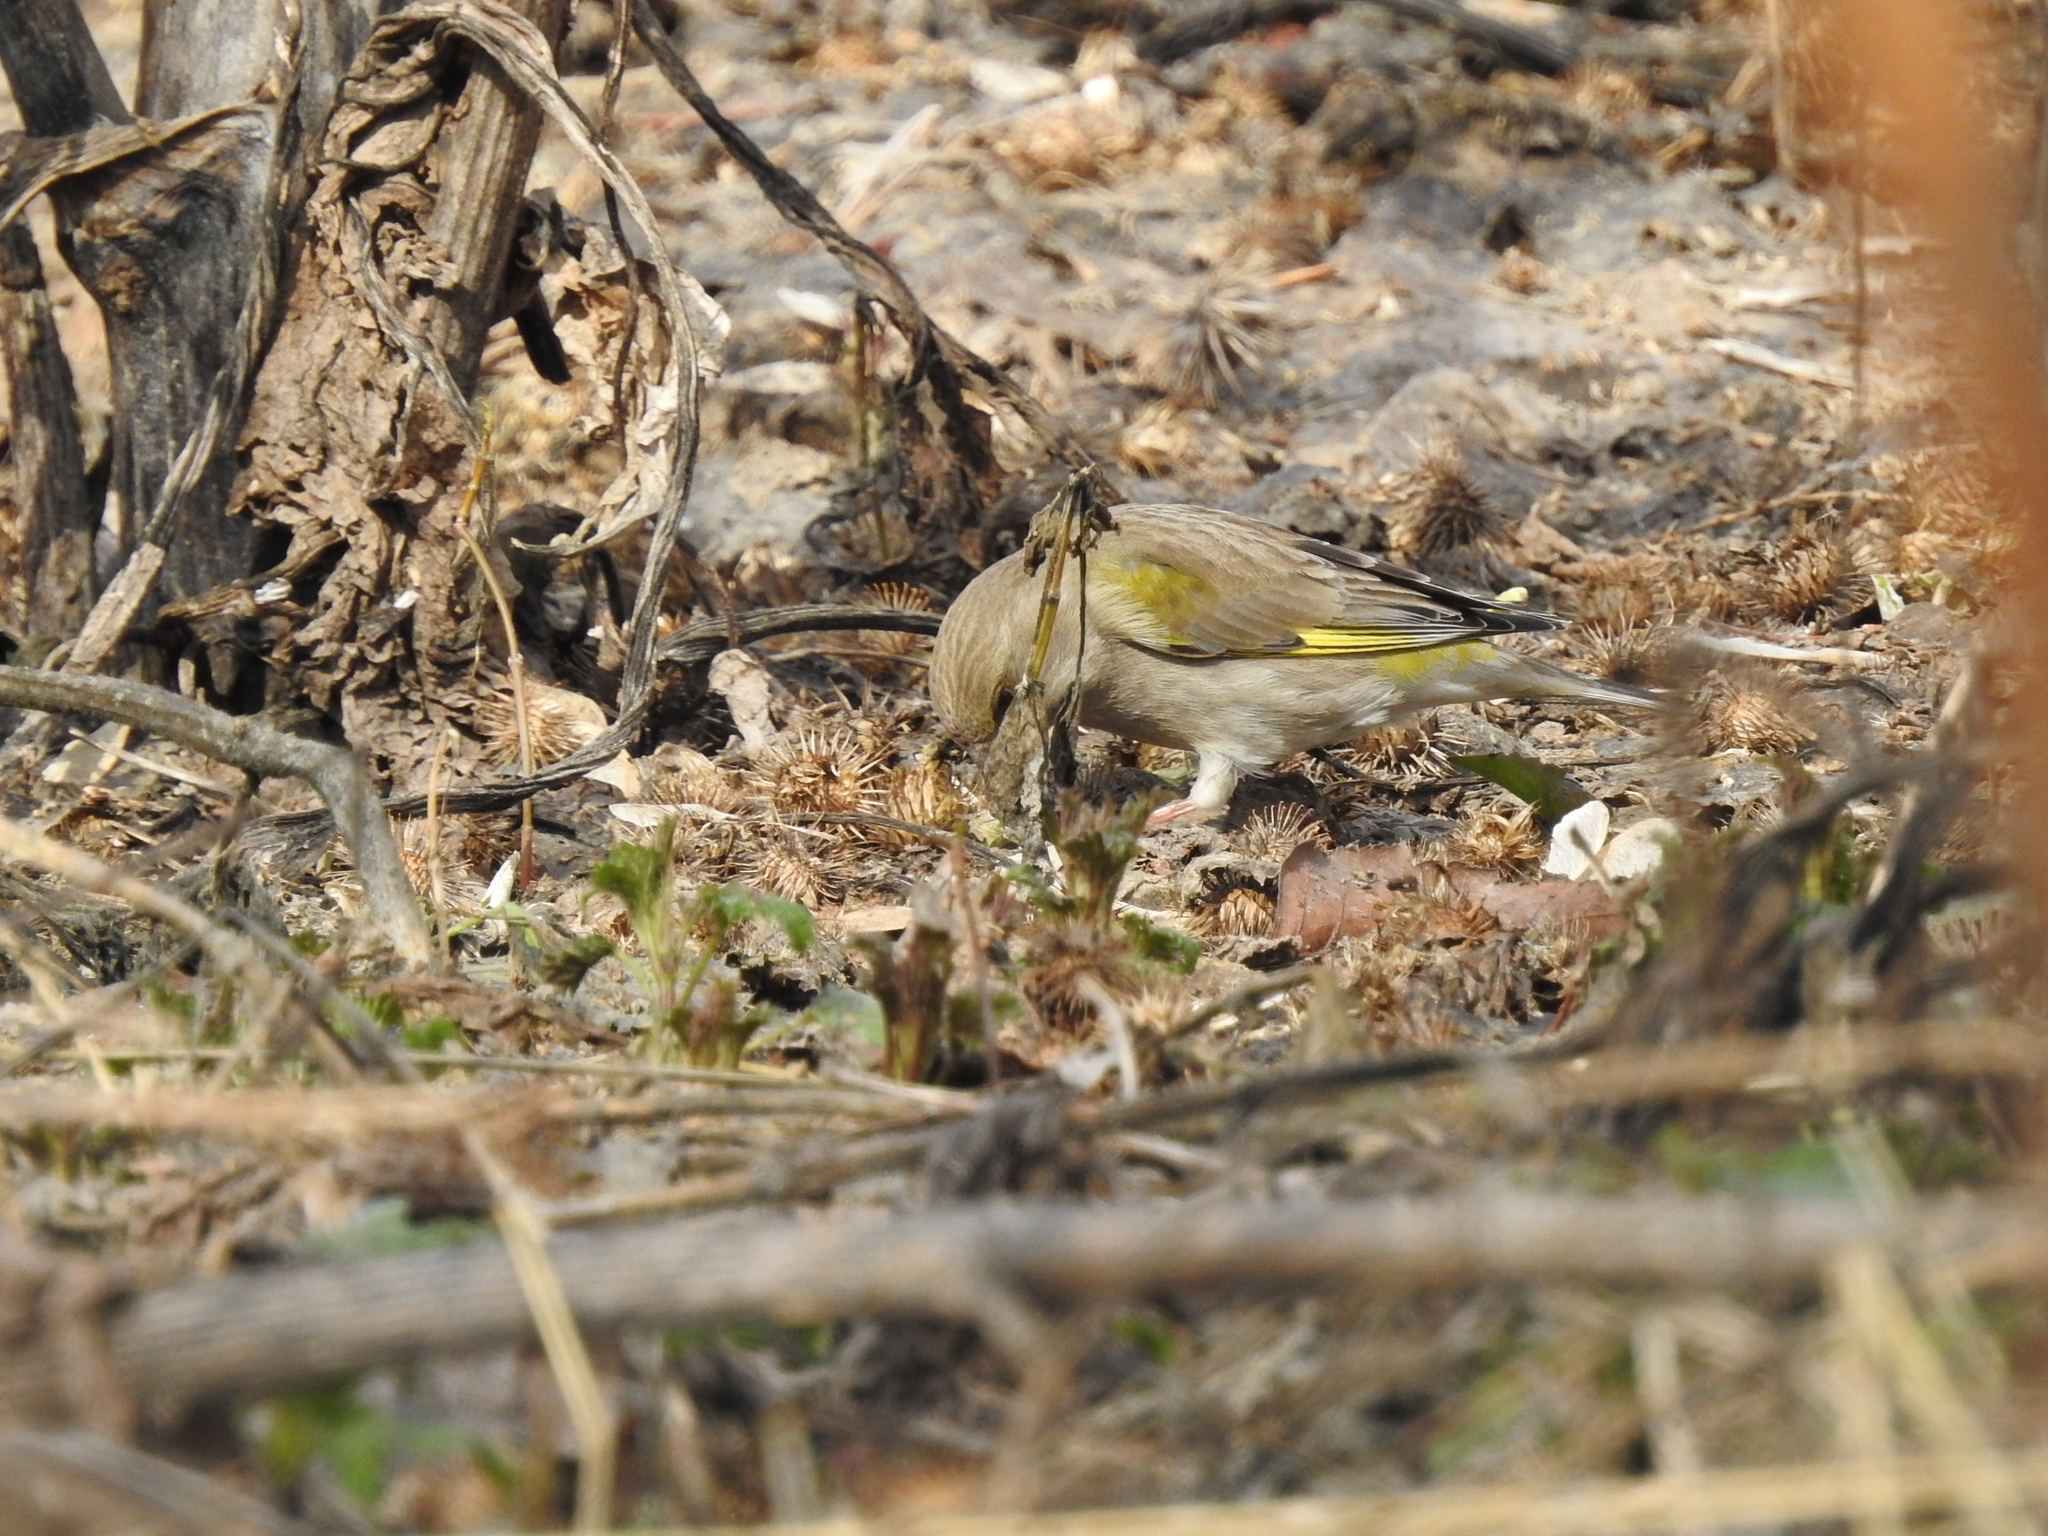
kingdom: Plantae
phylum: Tracheophyta
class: Liliopsida
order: Poales
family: Poaceae
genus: Chloris
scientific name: Chloris chloris
